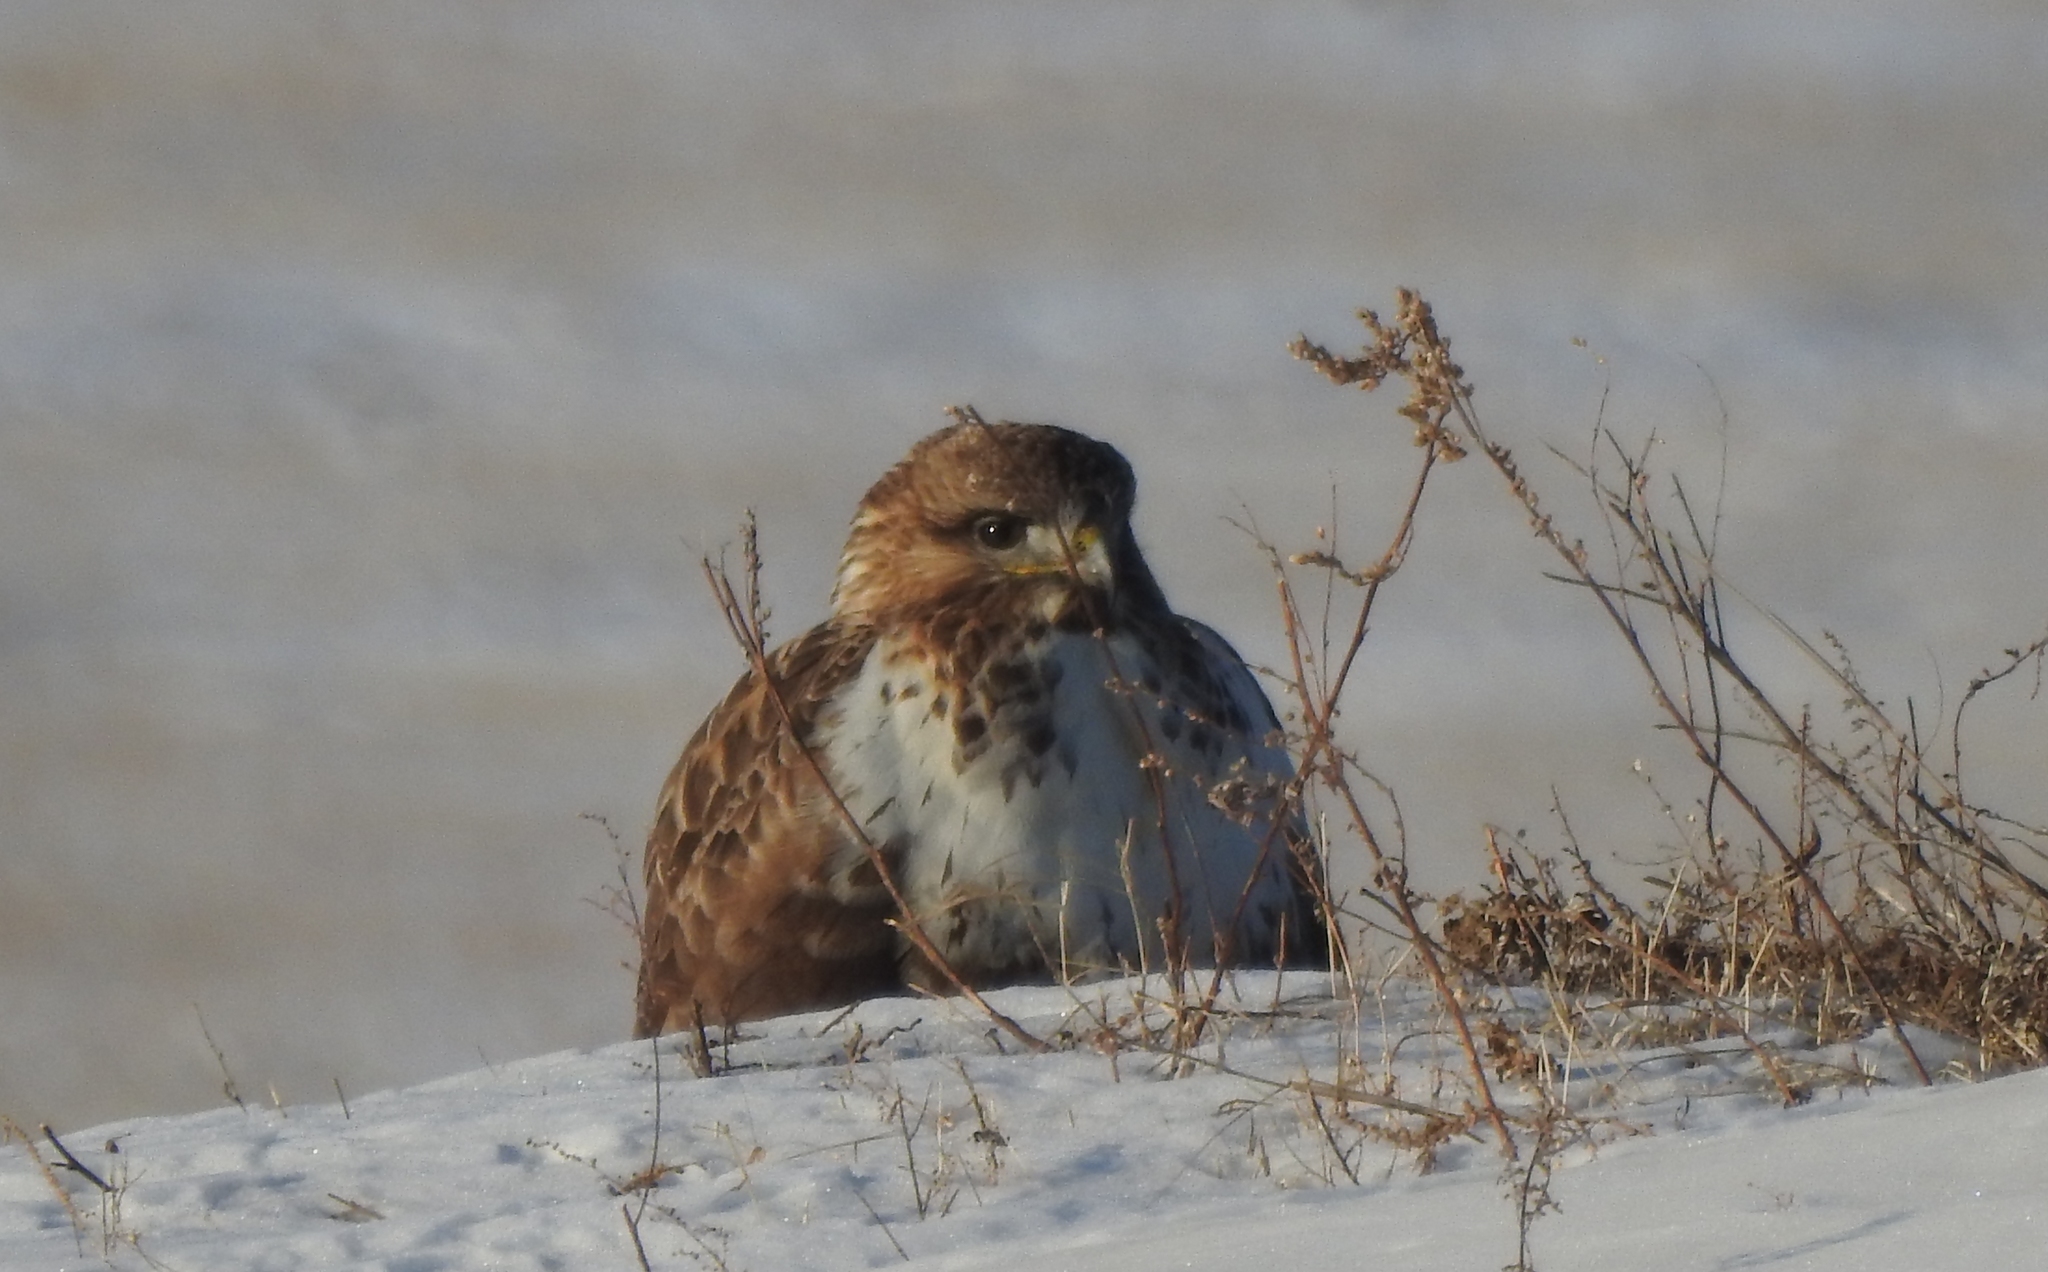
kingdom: Animalia
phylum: Chordata
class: Aves
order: Accipitriformes
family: Accipitridae
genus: Buteo
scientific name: Buteo hemilasius
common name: Upland buzzard
